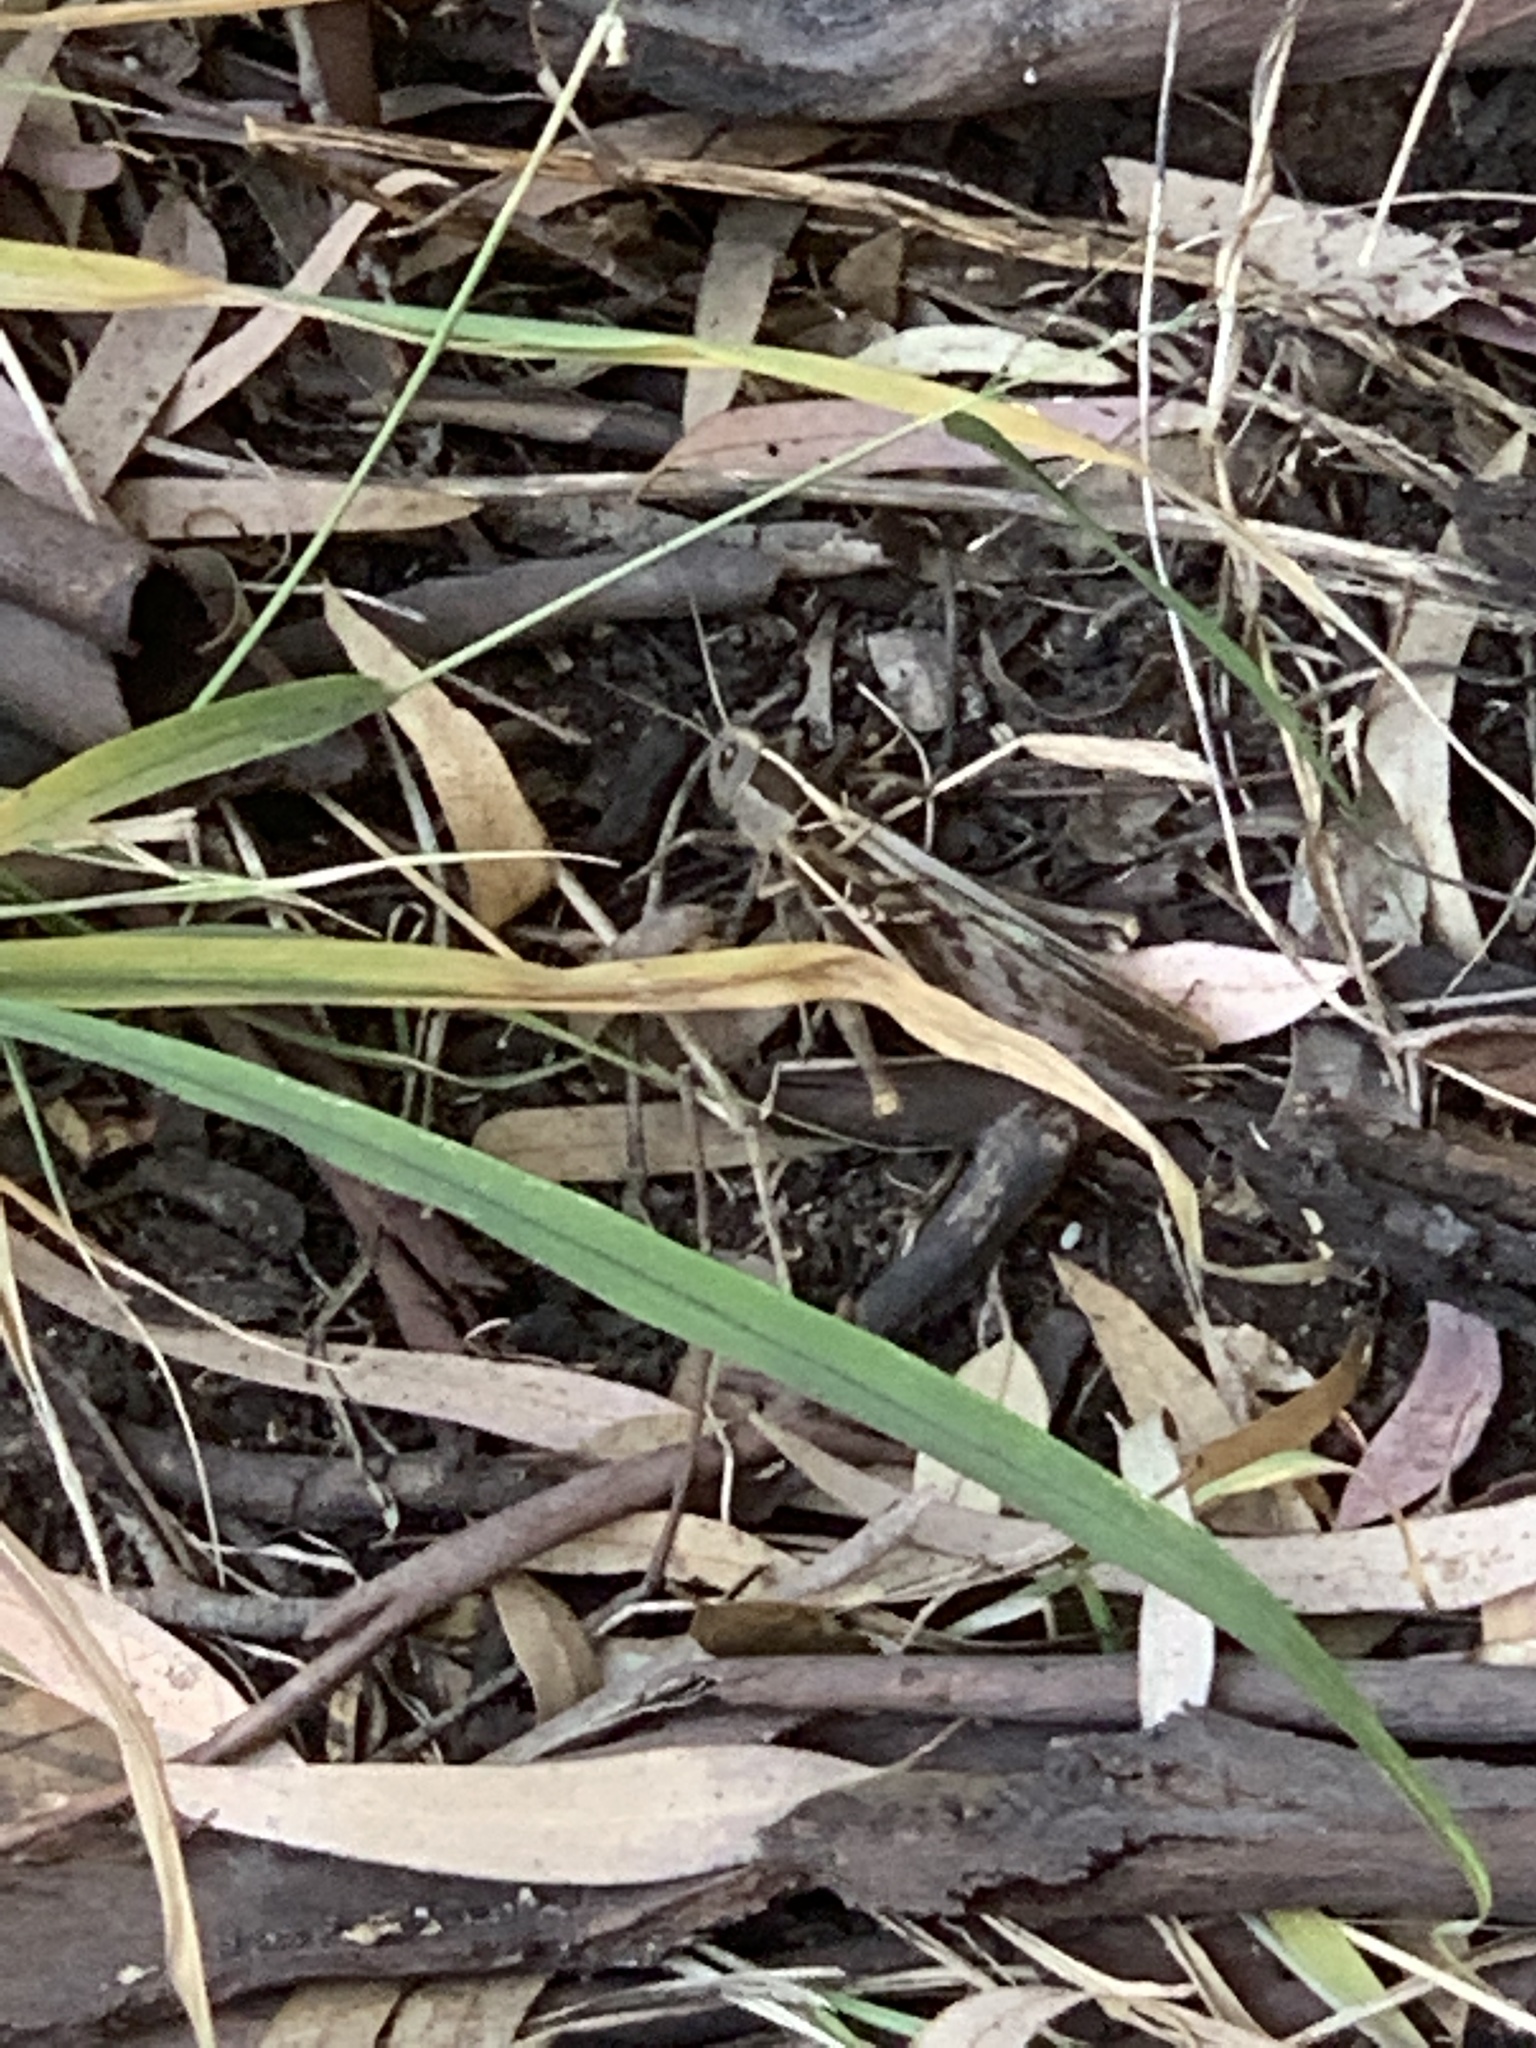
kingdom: Animalia
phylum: Arthropoda
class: Insecta
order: Orthoptera
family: Acrididae
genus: Acanthacris
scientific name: Acanthacris ruficornis
